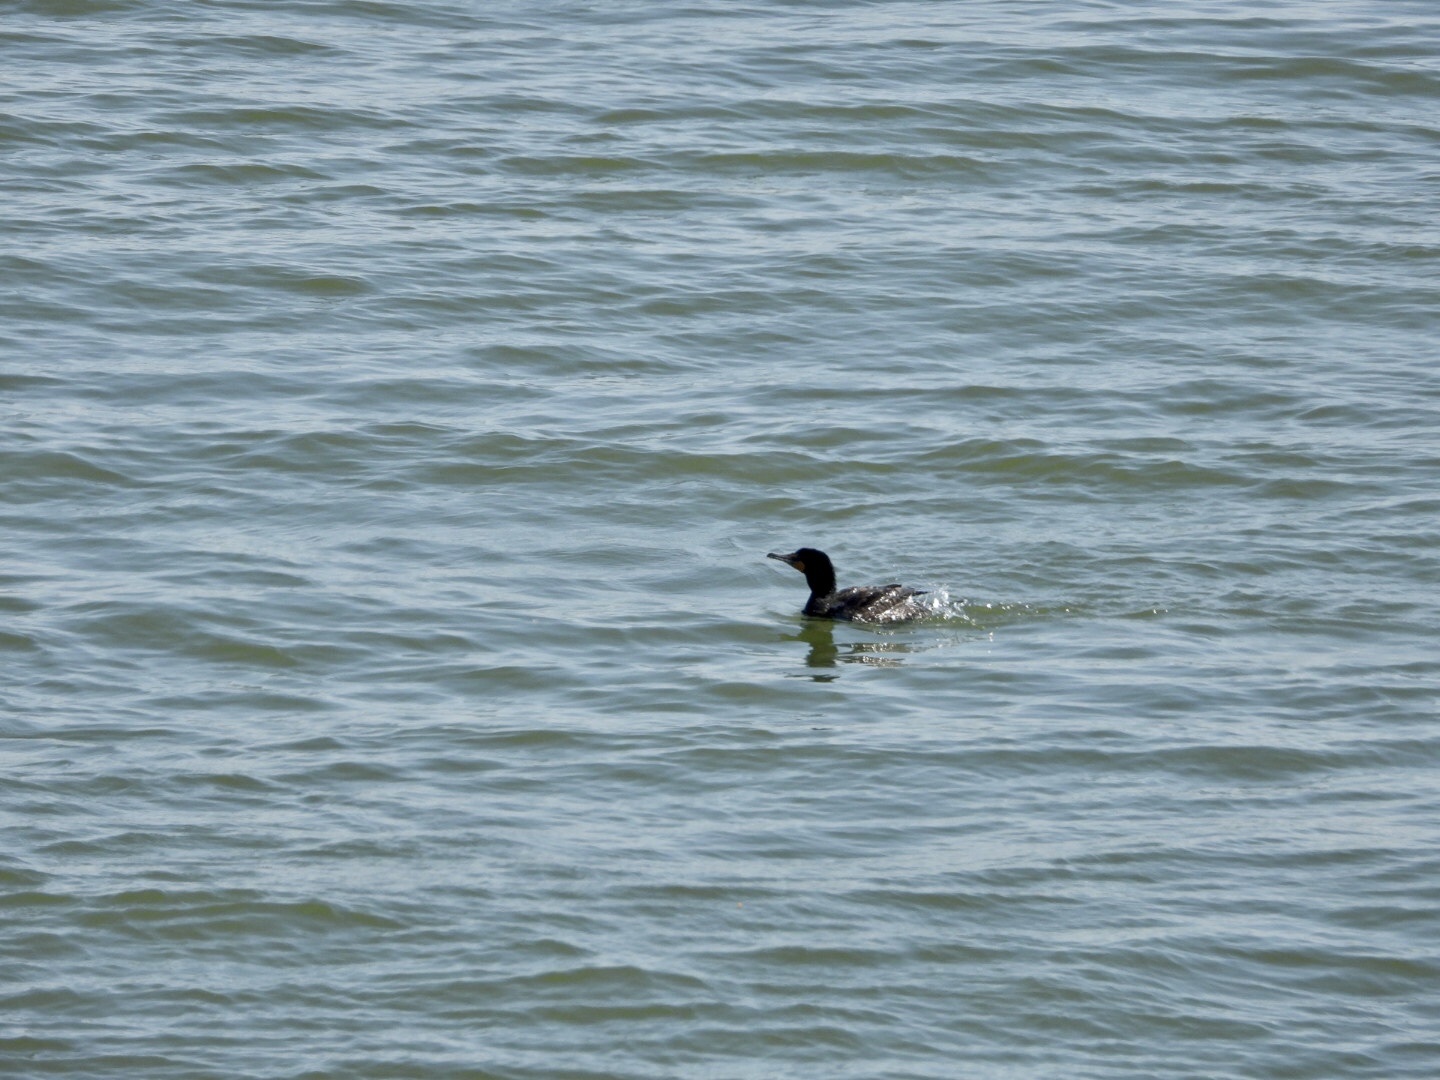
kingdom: Animalia
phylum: Chordata
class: Aves
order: Suliformes
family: Phalacrocoracidae
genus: Phalacrocorax
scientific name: Phalacrocorax auritus
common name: Double-crested cormorant
